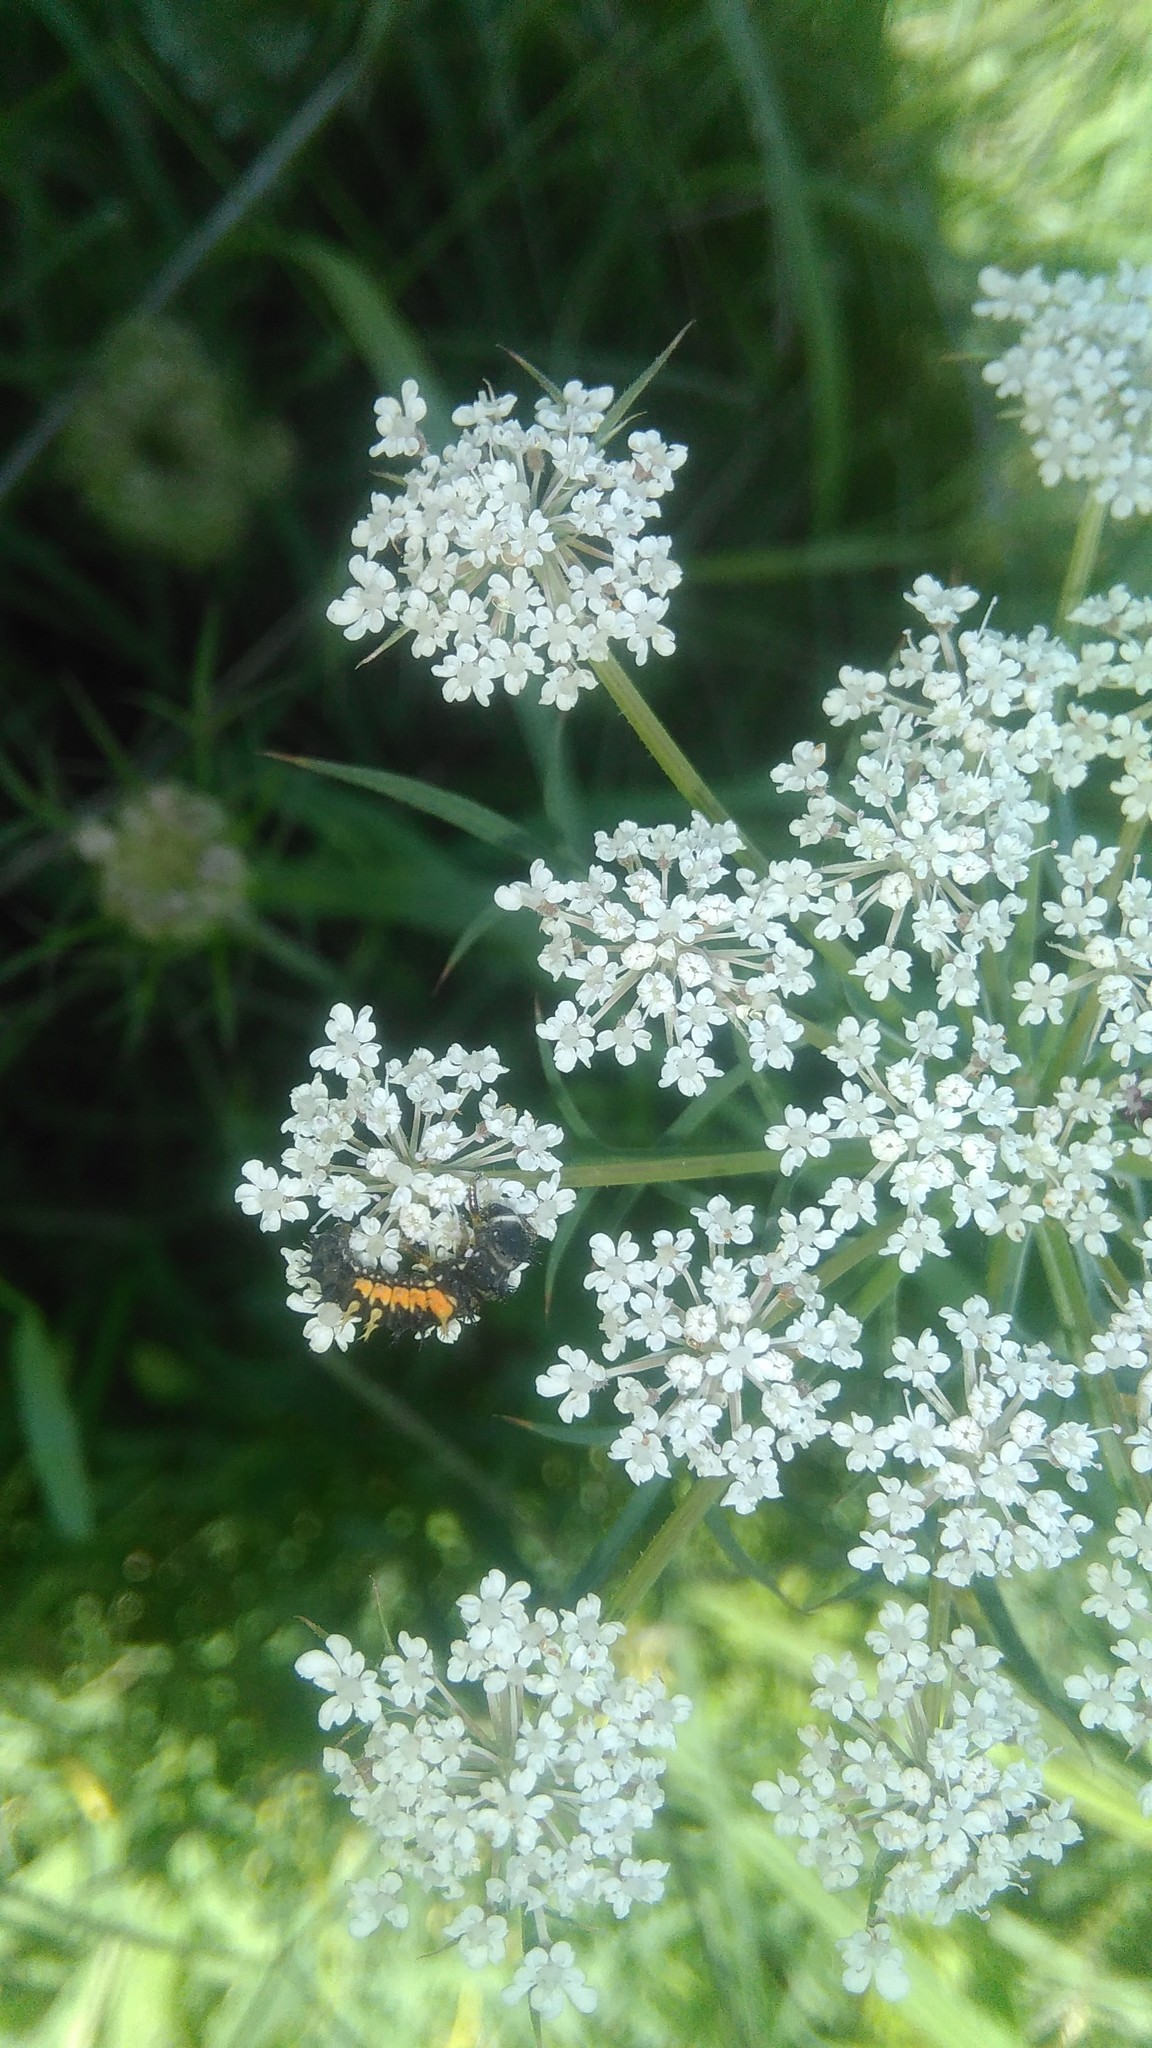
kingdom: Animalia
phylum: Arthropoda
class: Insecta
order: Coleoptera
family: Coccinellidae
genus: Harmonia
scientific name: Harmonia axyridis
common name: Harlequin ladybird
